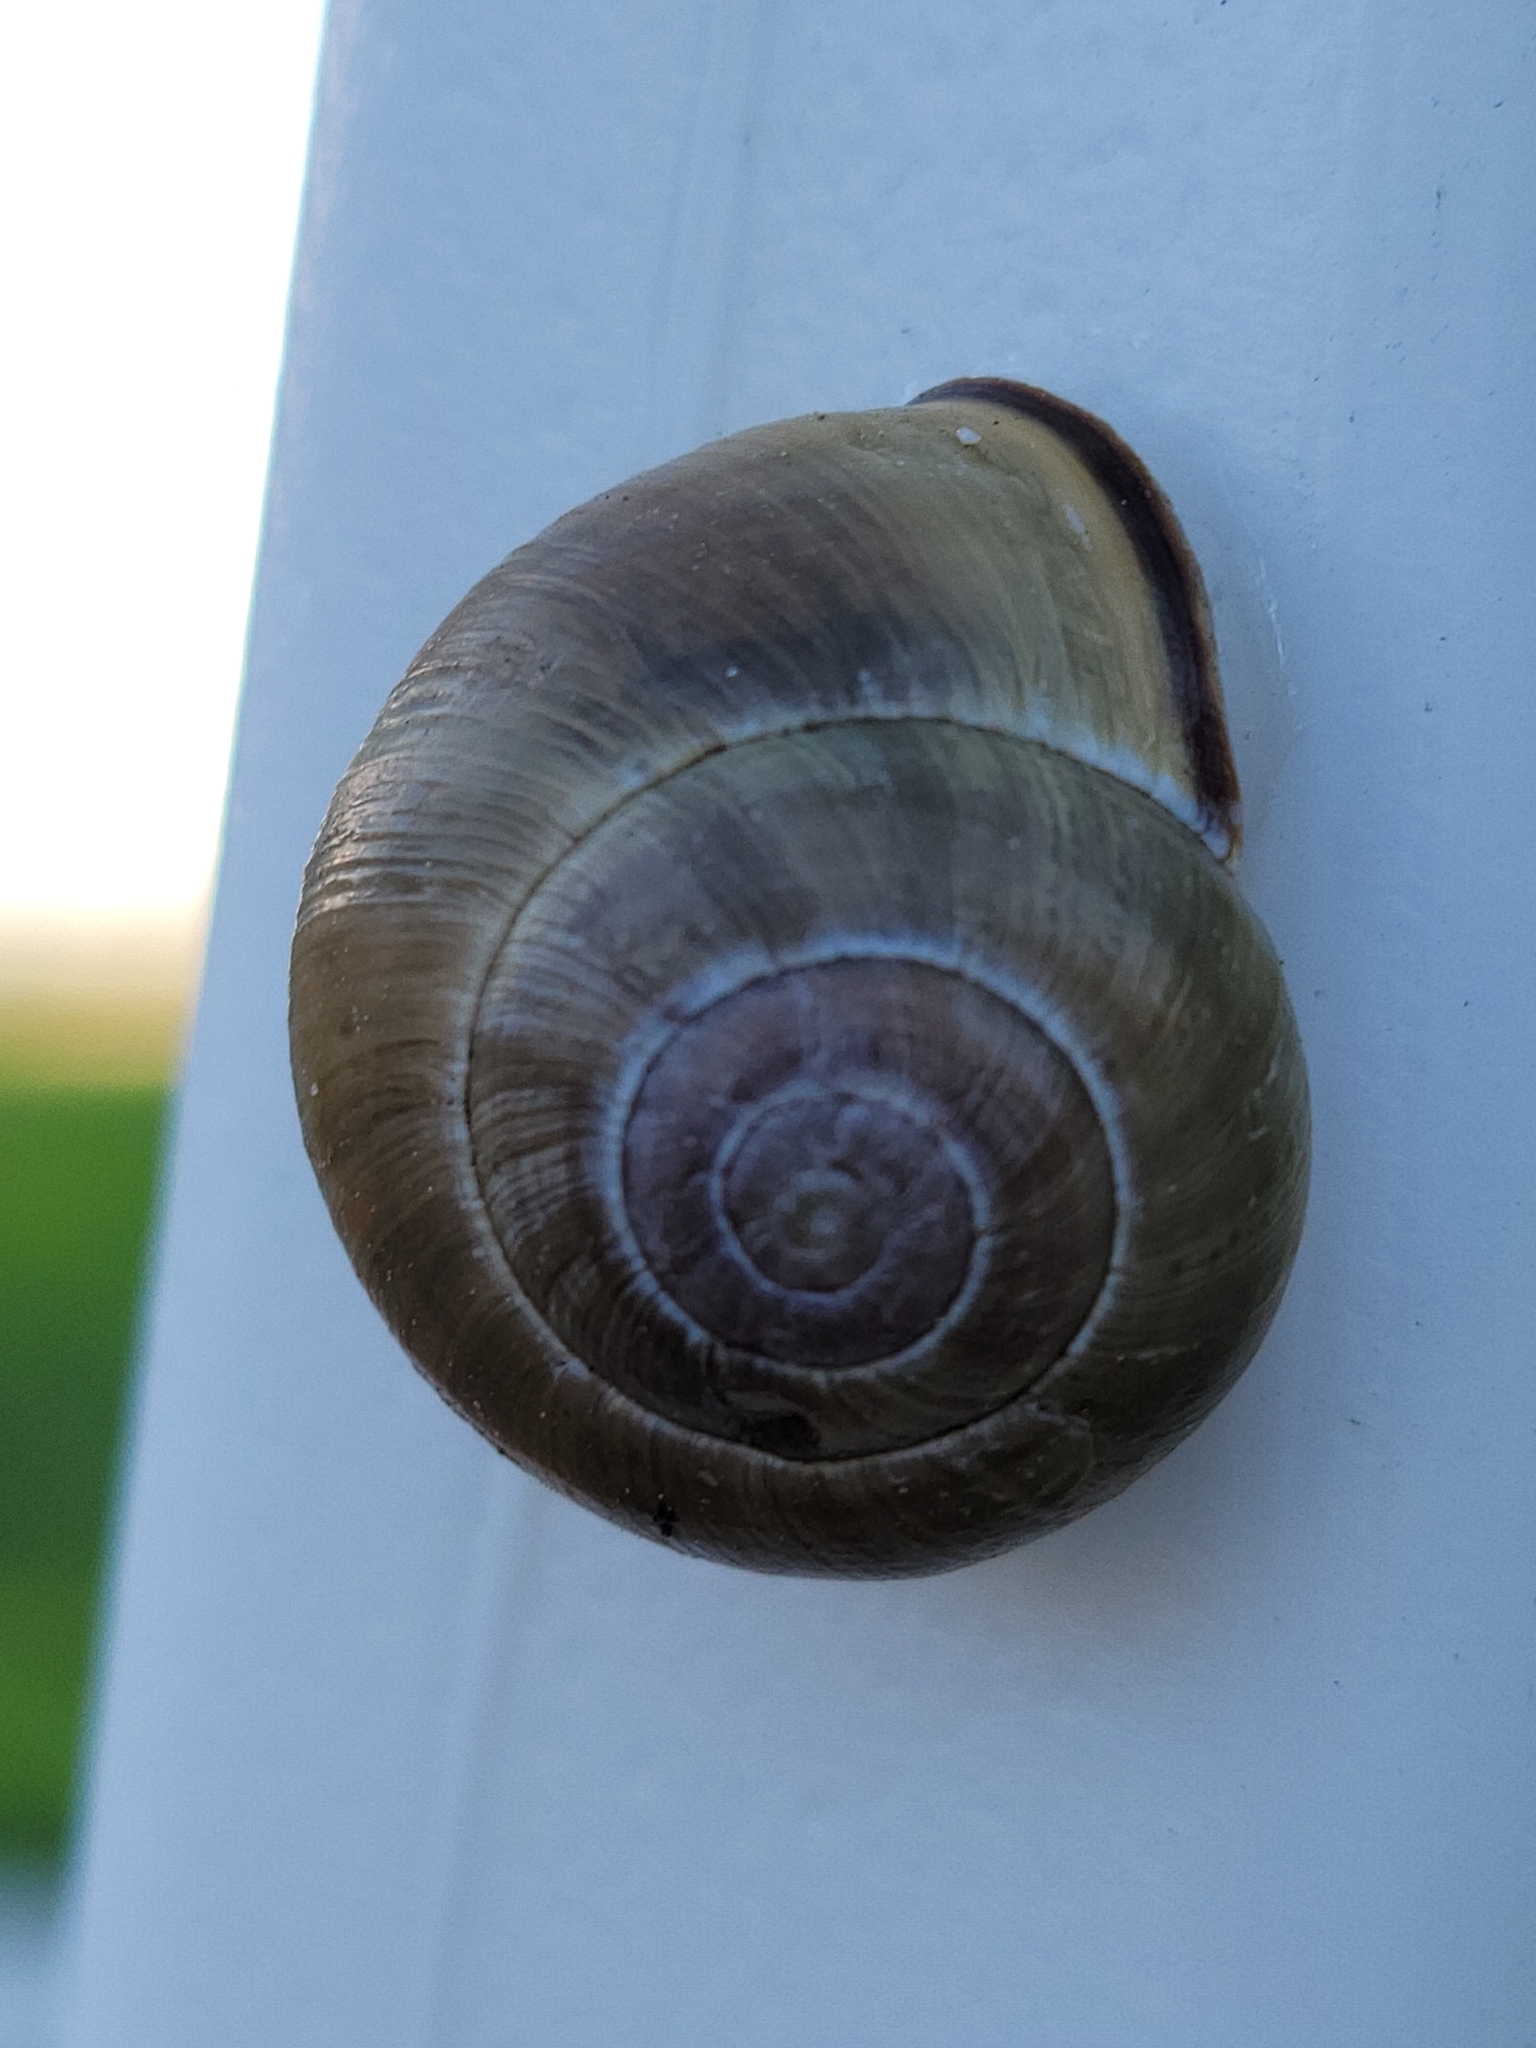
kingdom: Animalia
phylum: Mollusca
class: Gastropoda
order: Stylommatophora
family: Helicidae
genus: Cepaea
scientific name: Cepaea nemoralis
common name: Grovesnail
